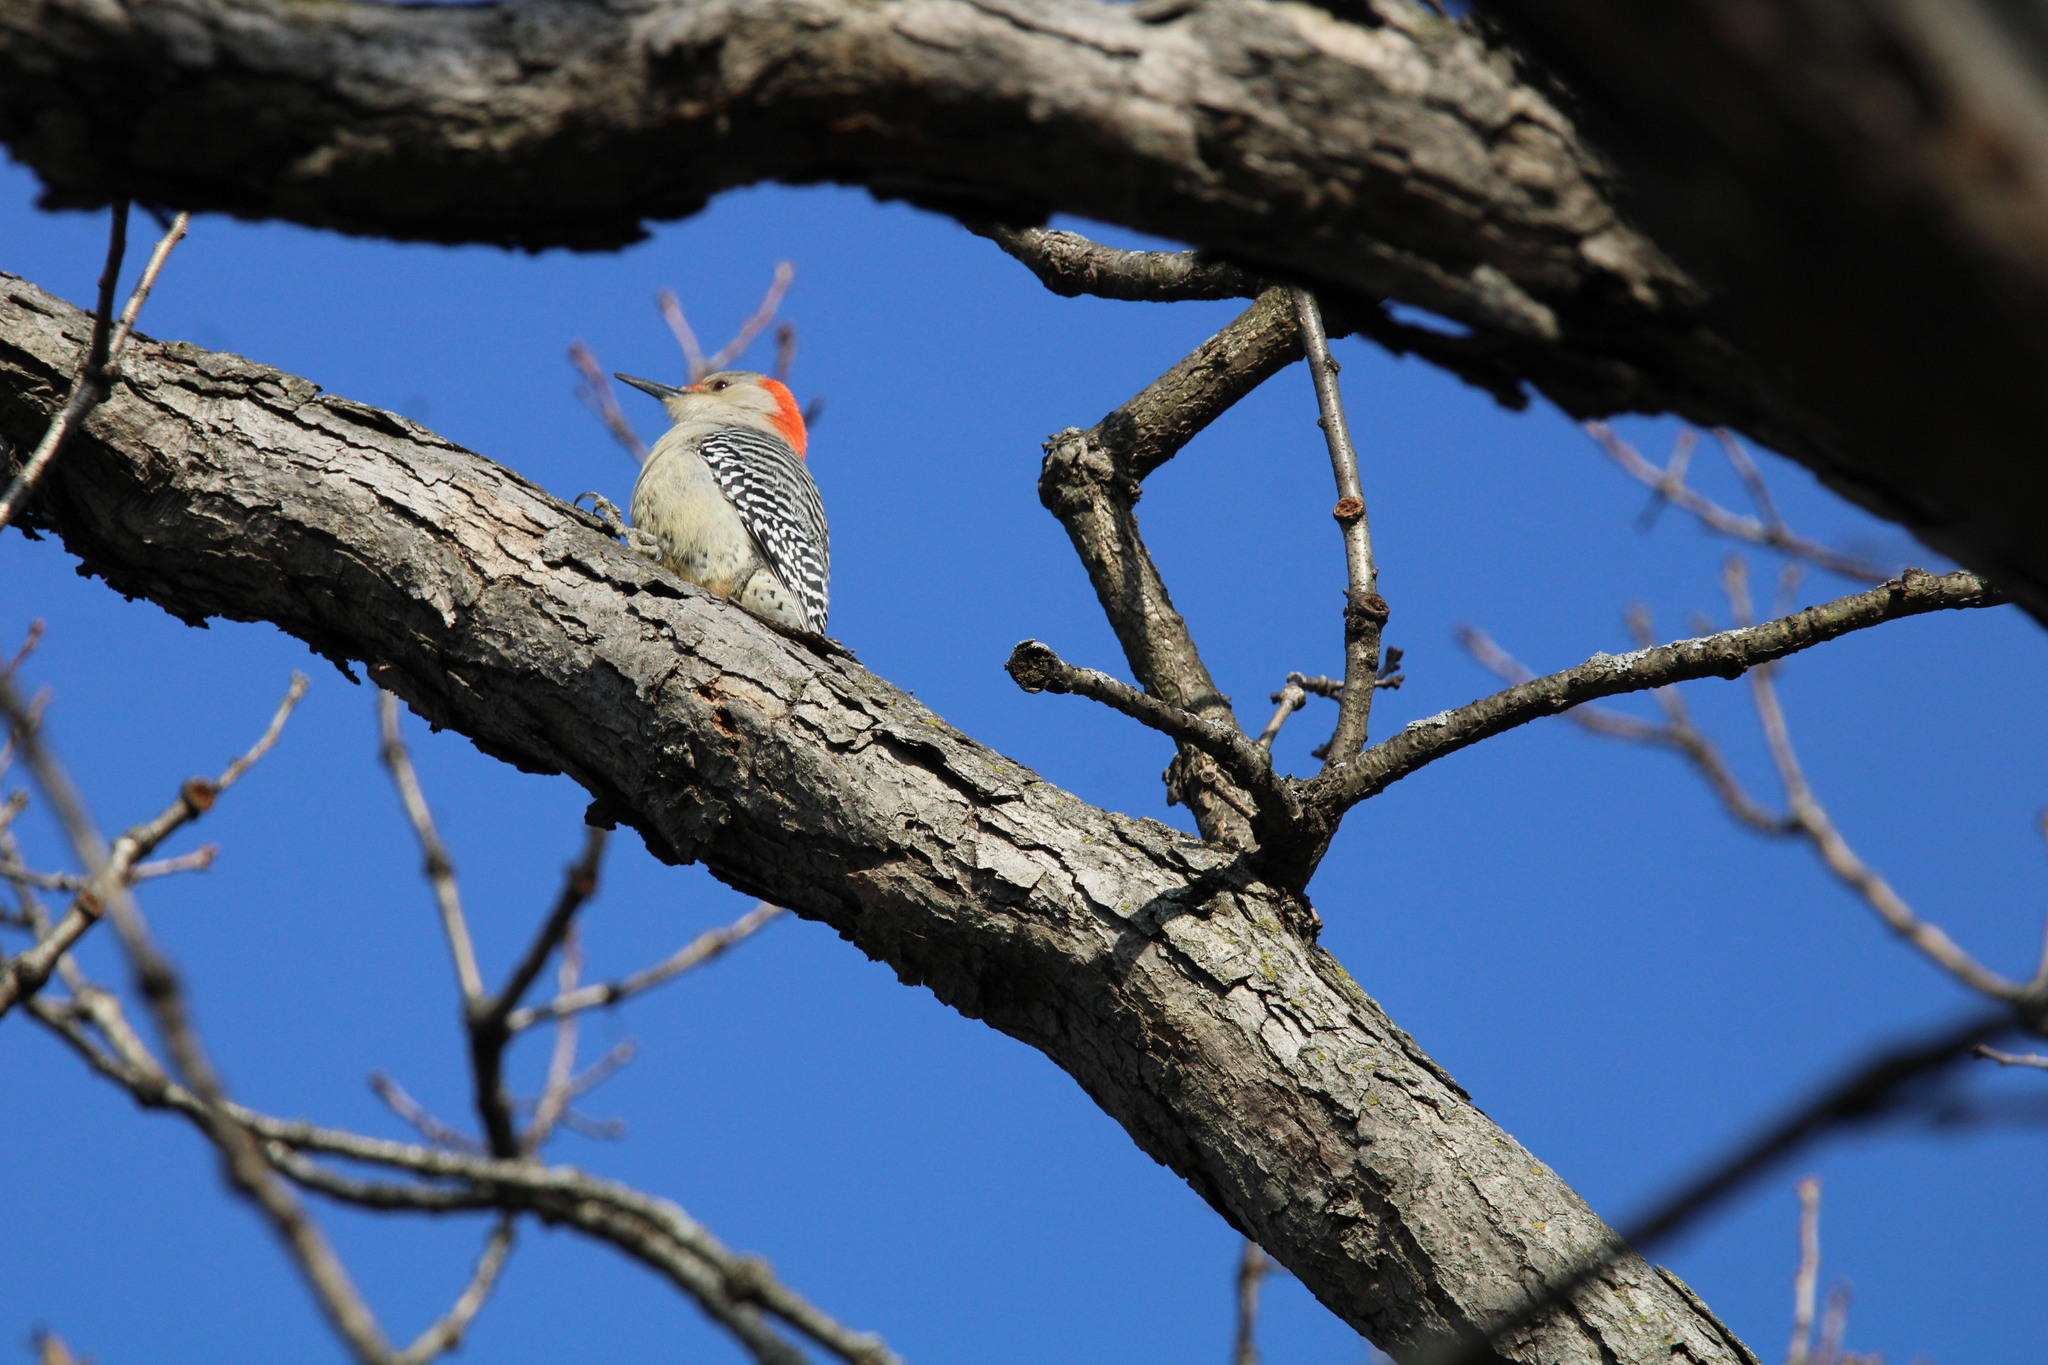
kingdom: Animalia
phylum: Chordata
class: Aves
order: Piciformes
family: Picidae
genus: Melanerpes
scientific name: Melanerpes carolinus
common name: Red-bellied woodpecker
